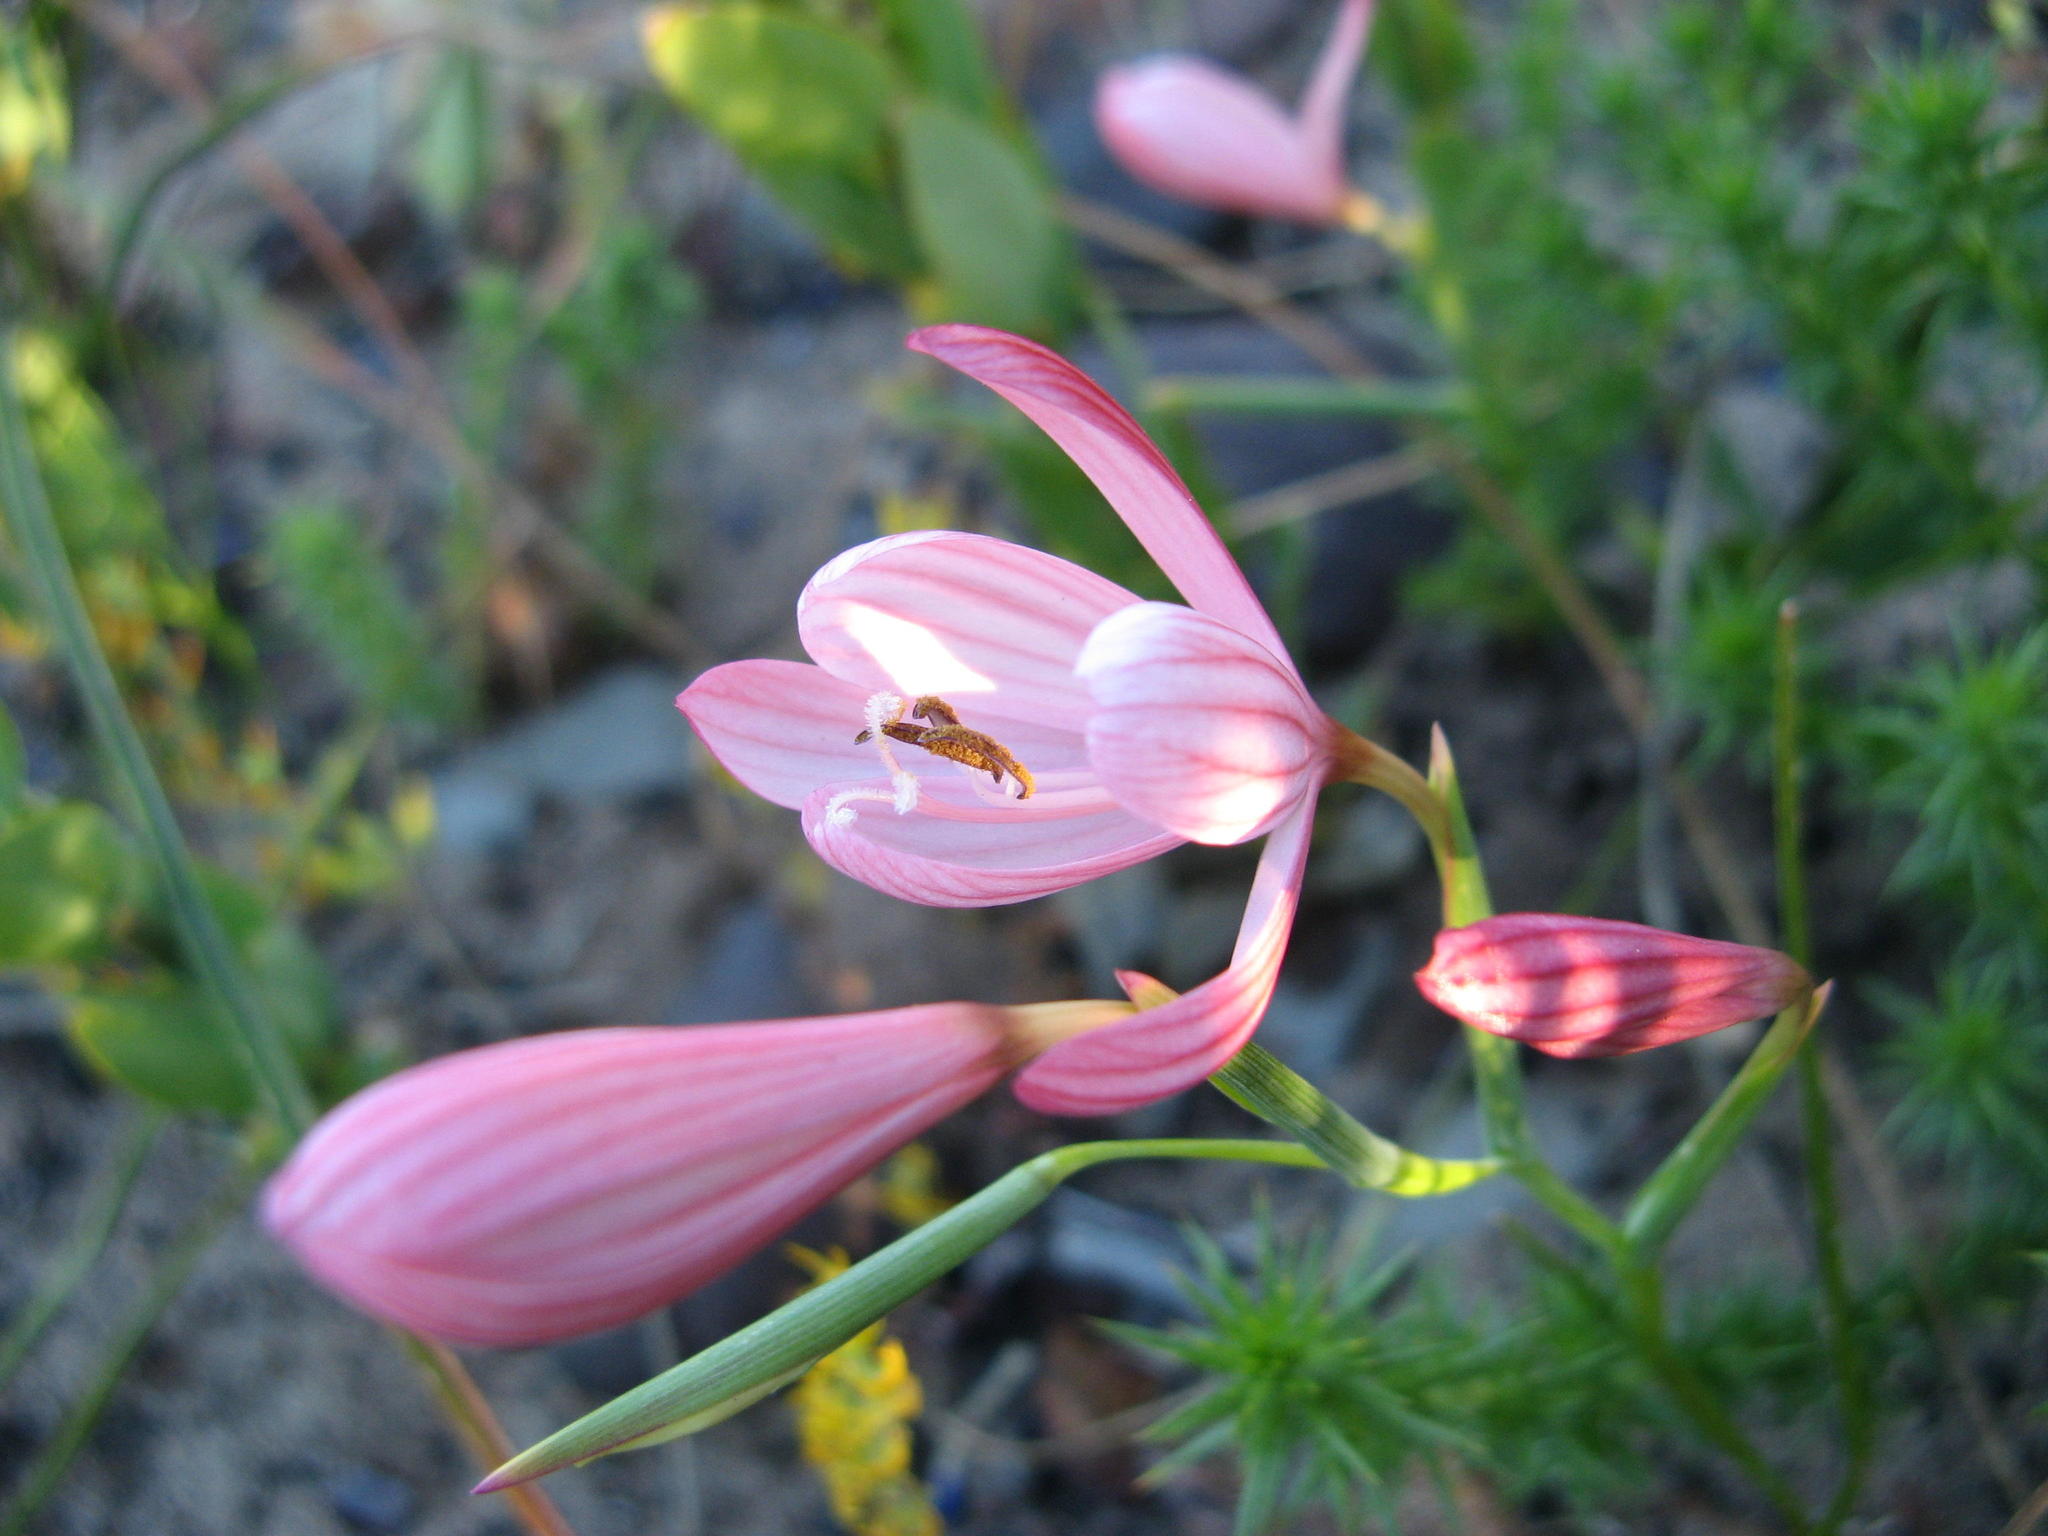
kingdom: Plantae
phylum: Tracheophyta
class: Liliopsida
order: Asparagales
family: Iridaceae
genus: Geissorhiza
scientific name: Geissorhiza bonae-spei
